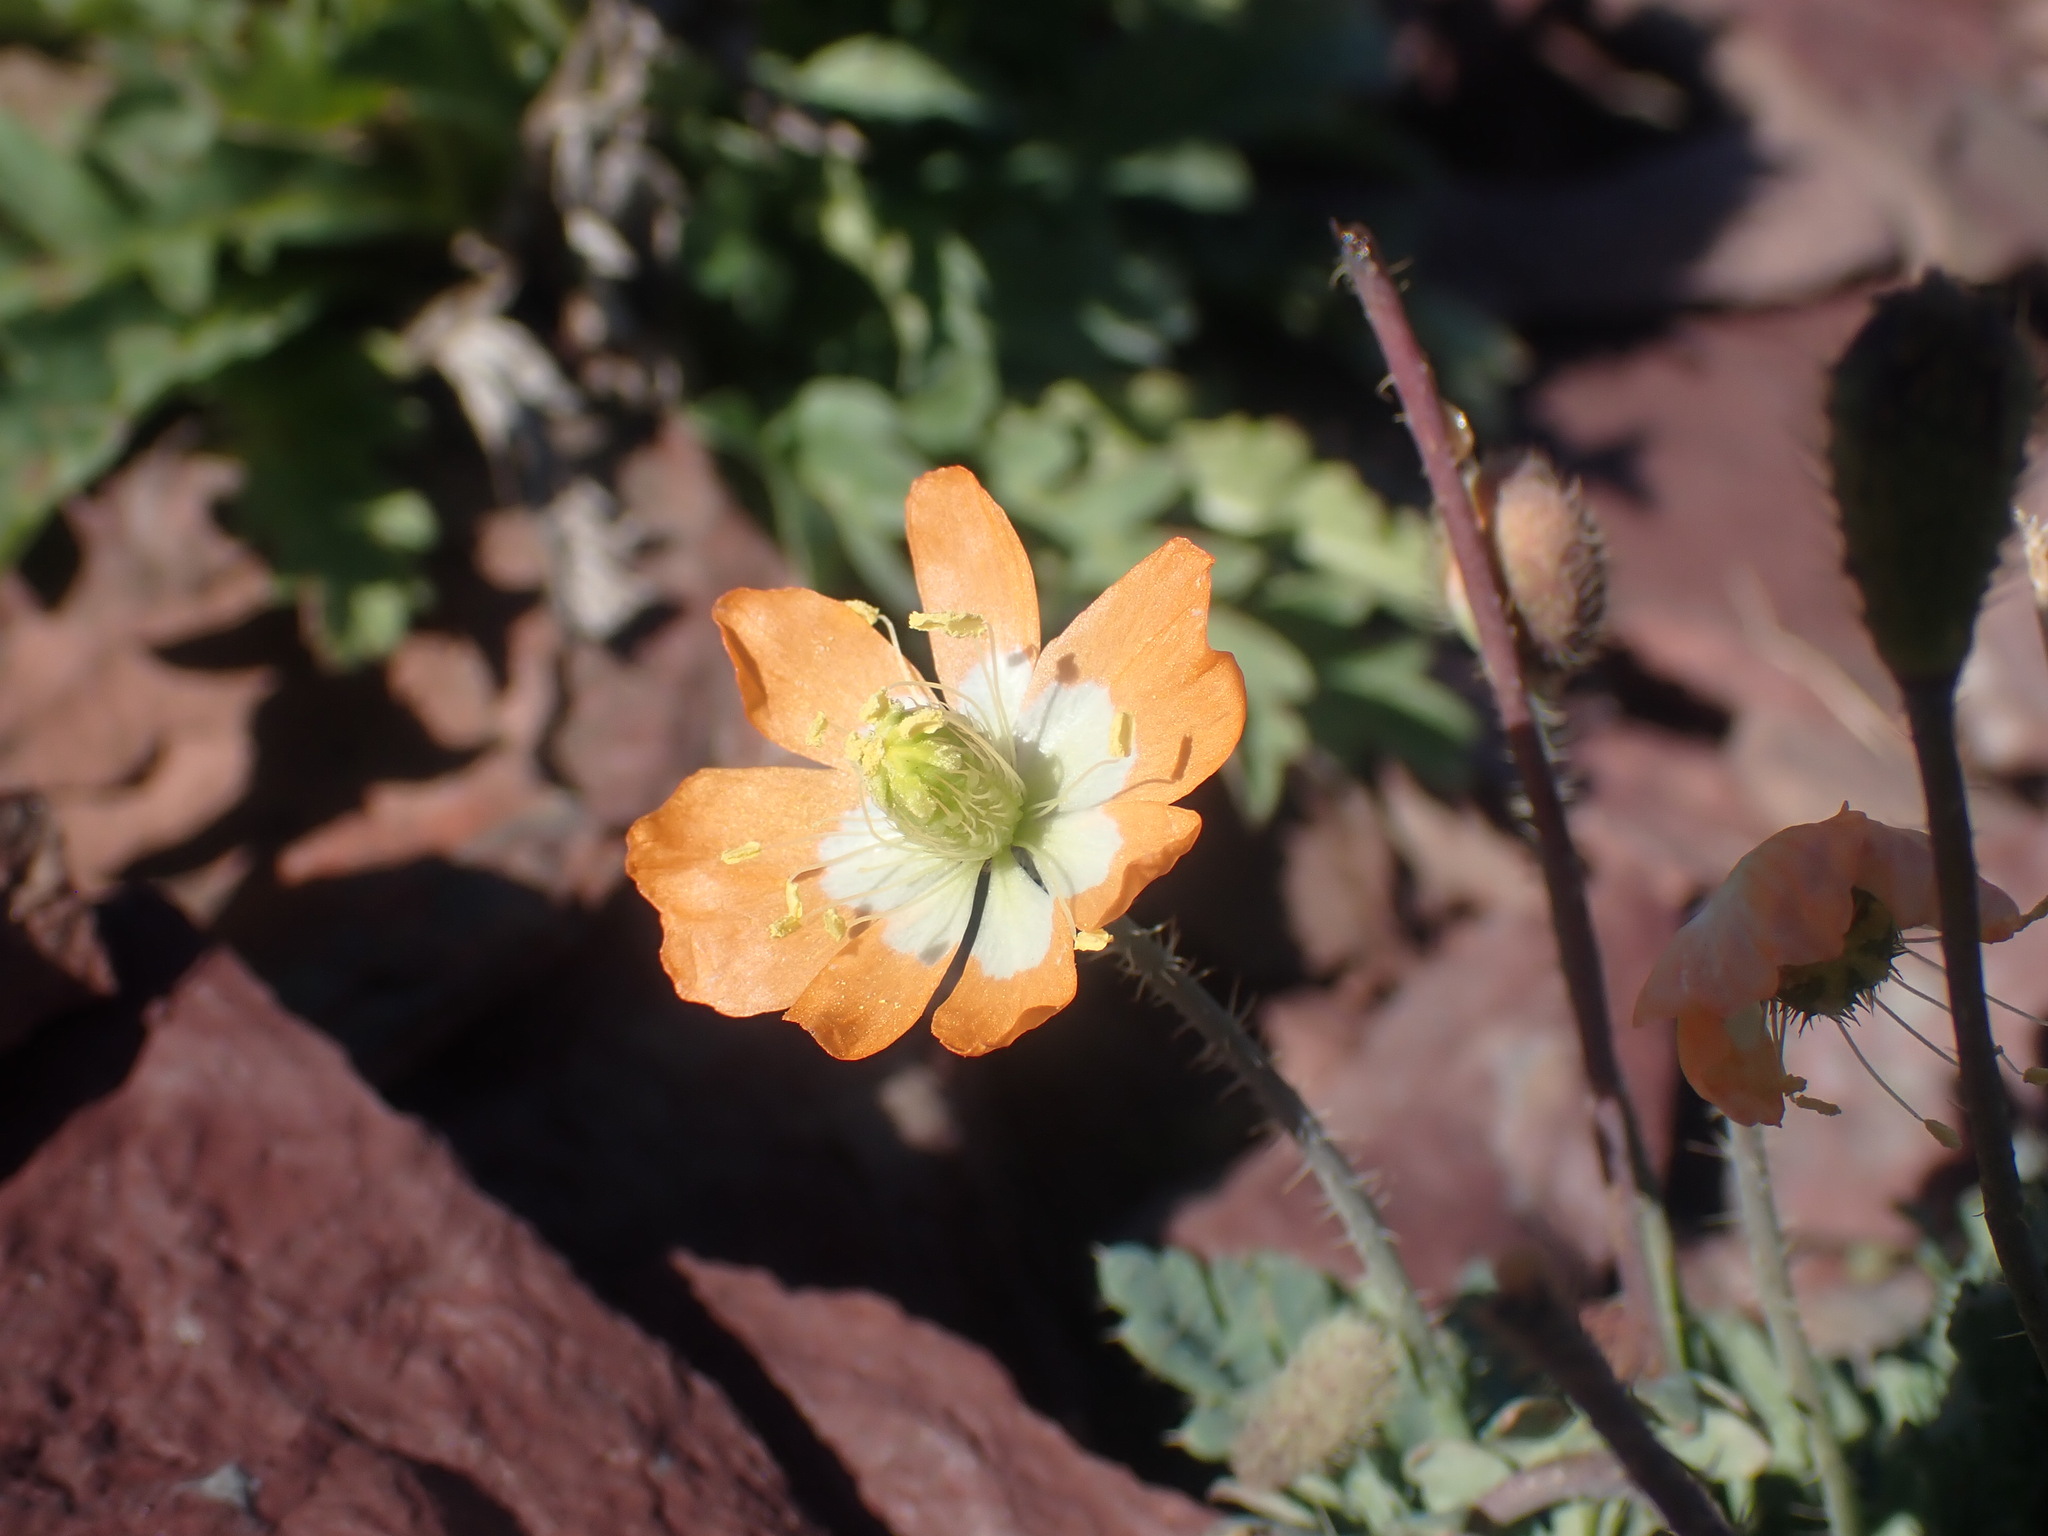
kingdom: Plantae
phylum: Tracheophyta
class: Magnoliopsida
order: Ranunculales
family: Papaveraceae
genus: Papaver
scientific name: Papaver pygmaeum
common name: Alpine glacier poppy
